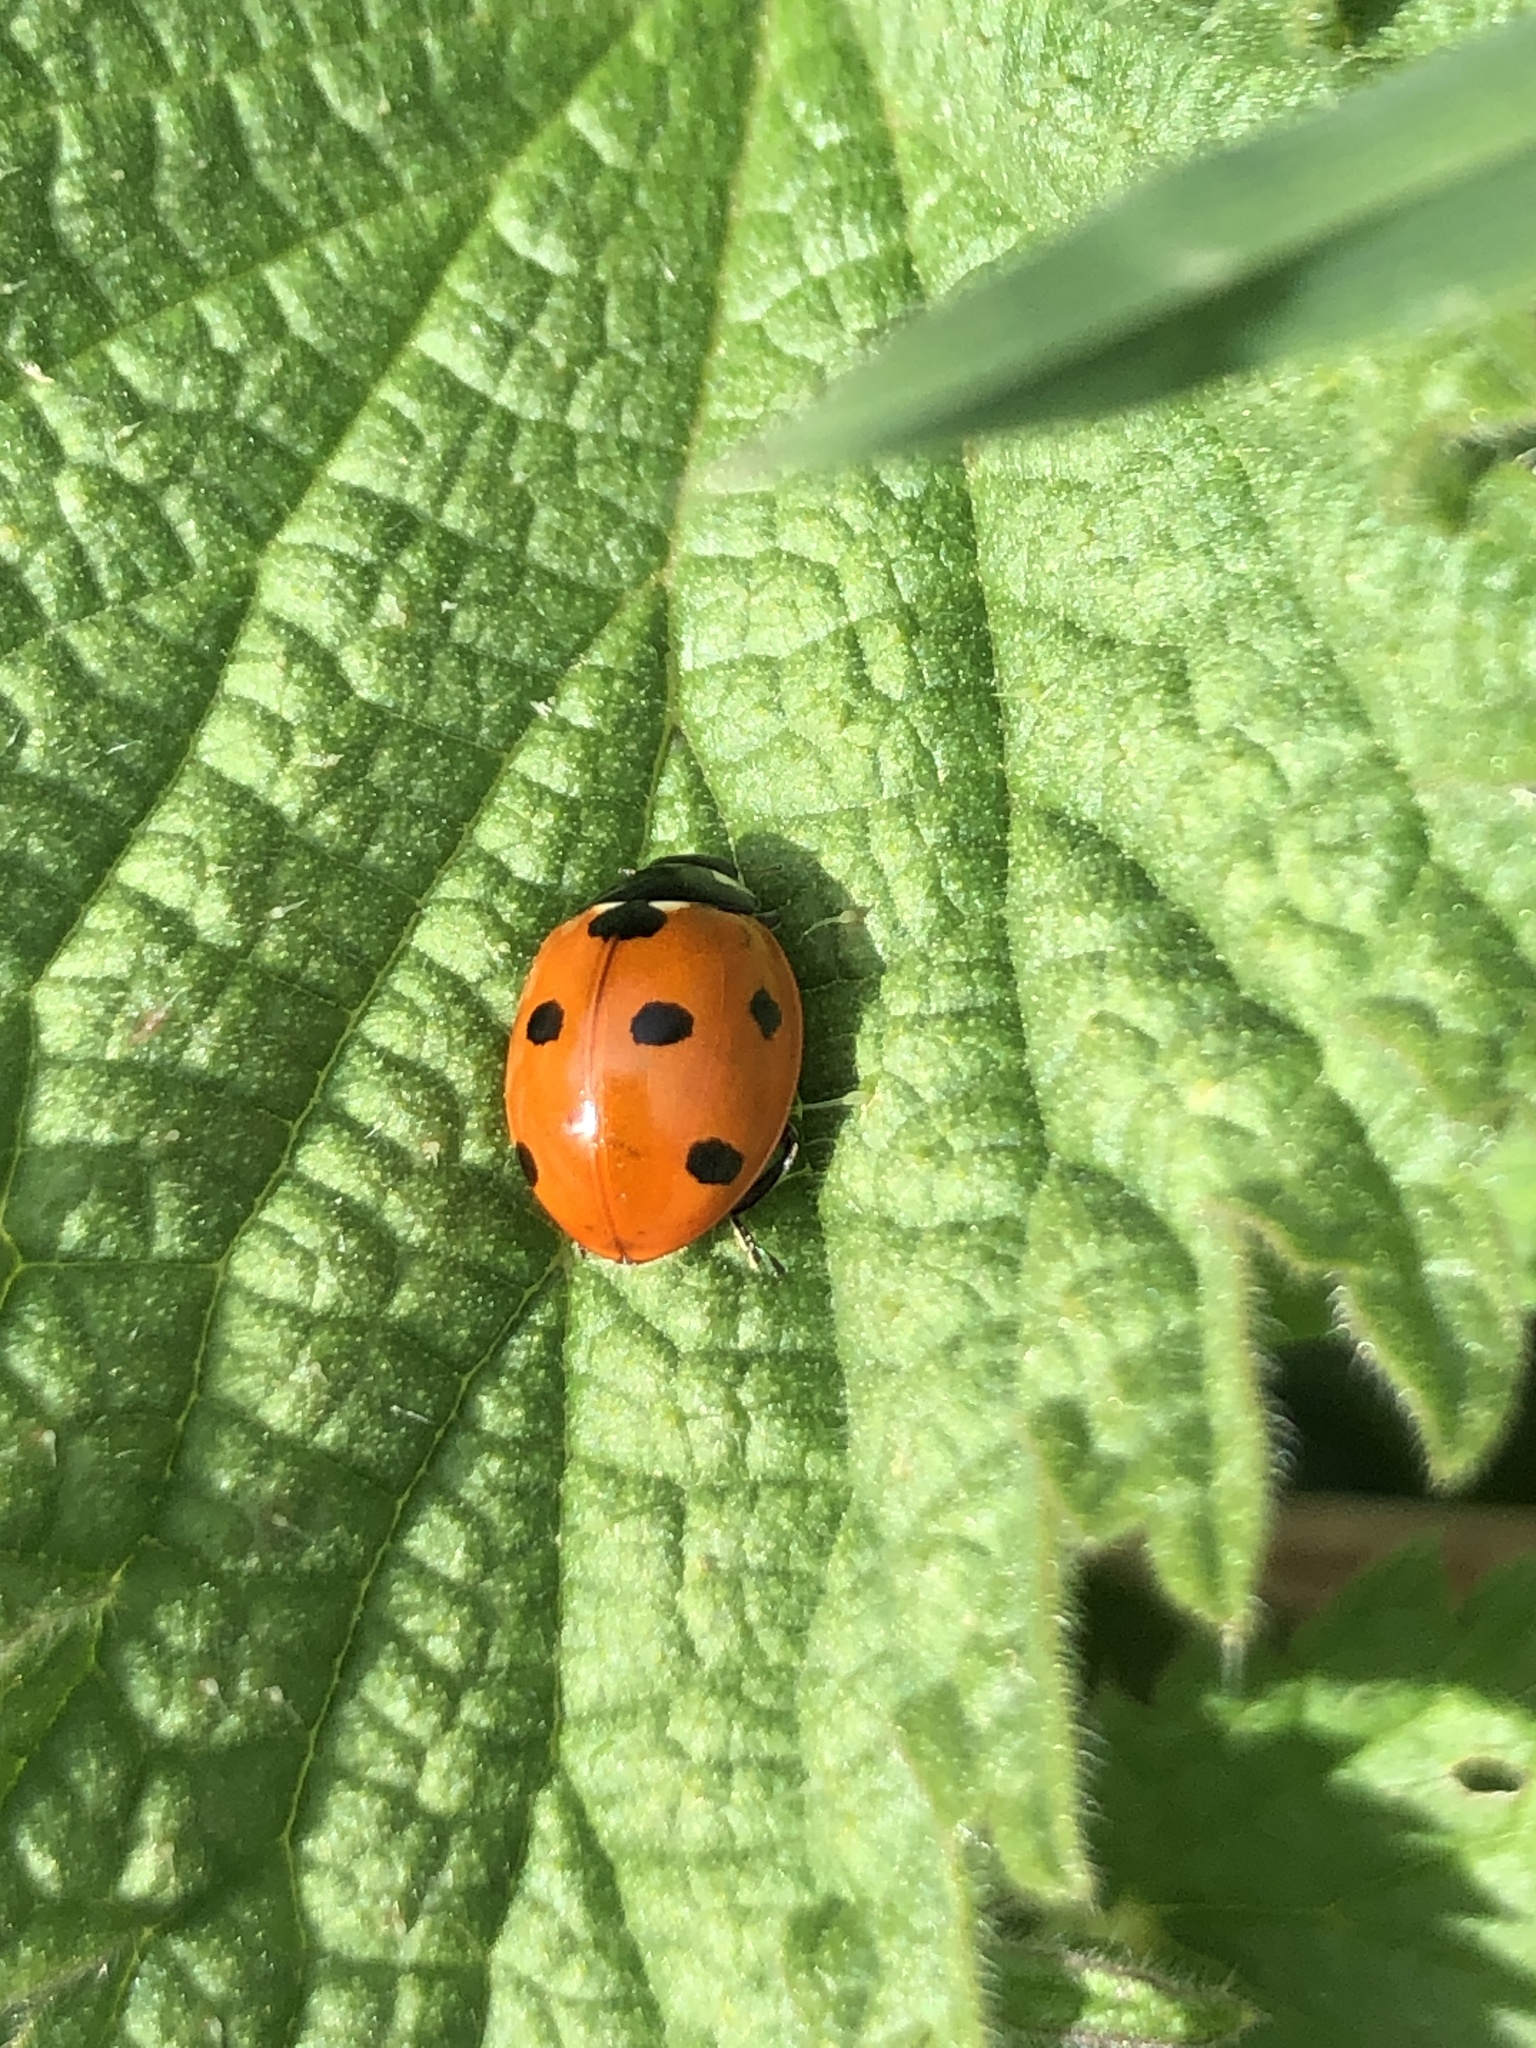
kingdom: Animalia
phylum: Arthropoda
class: Insecta
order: Coleoptera
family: Coccinellidae
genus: Coccinella
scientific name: Coccinella septempunctata
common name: Sevenspotted lady beetle
